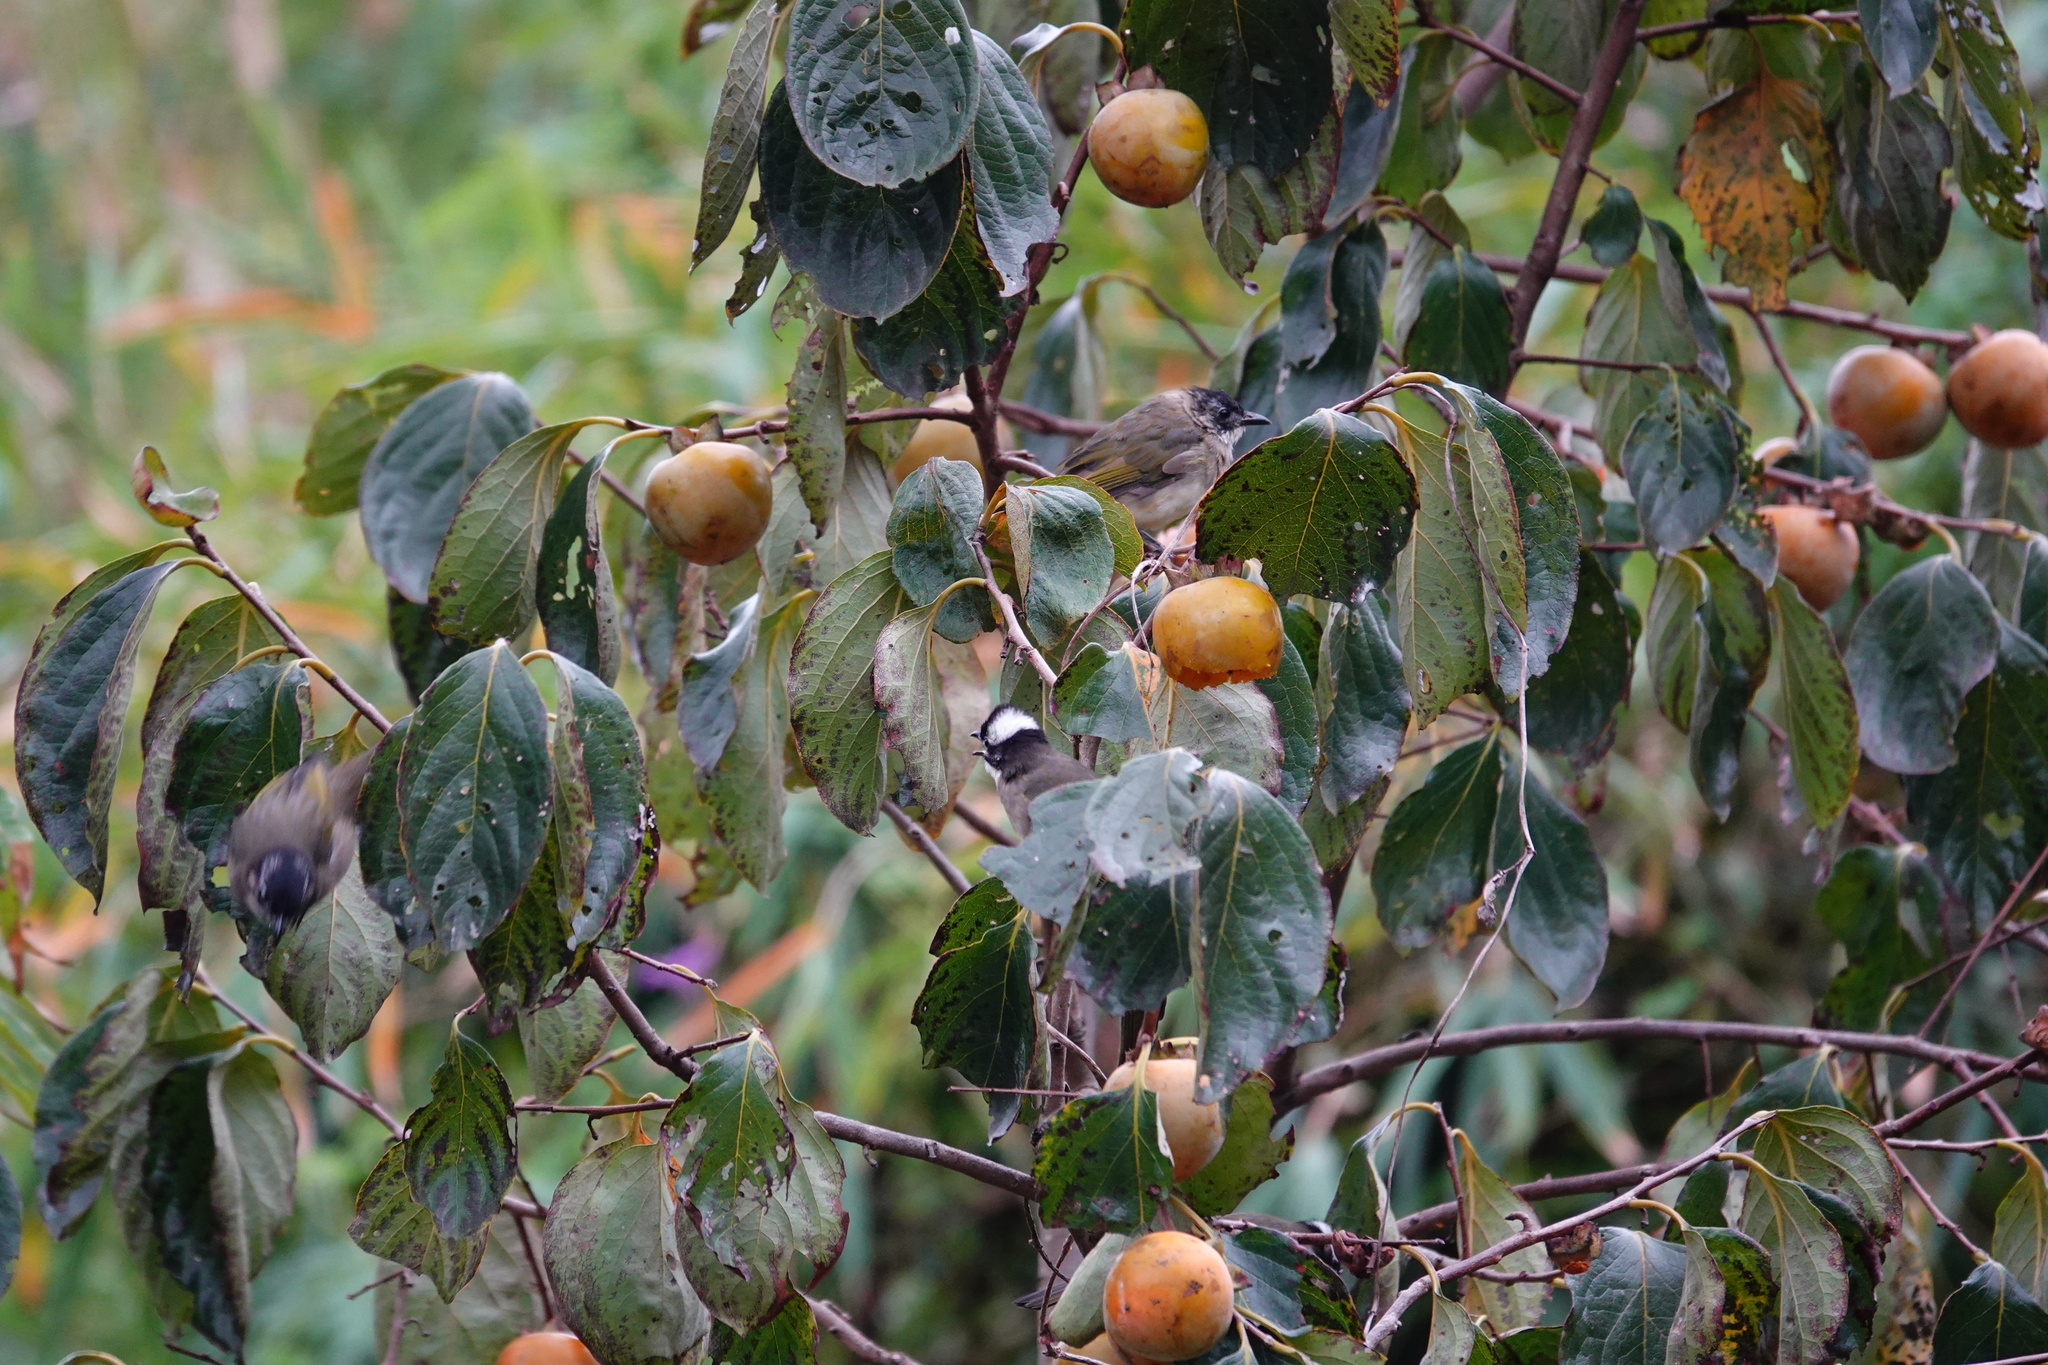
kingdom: Animalia
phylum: Chordata
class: Aves
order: Passeriformes
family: Pycnonotidae
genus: Pycnonotus
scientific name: Pycnonotus sinensis
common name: Light-vented bulbul
